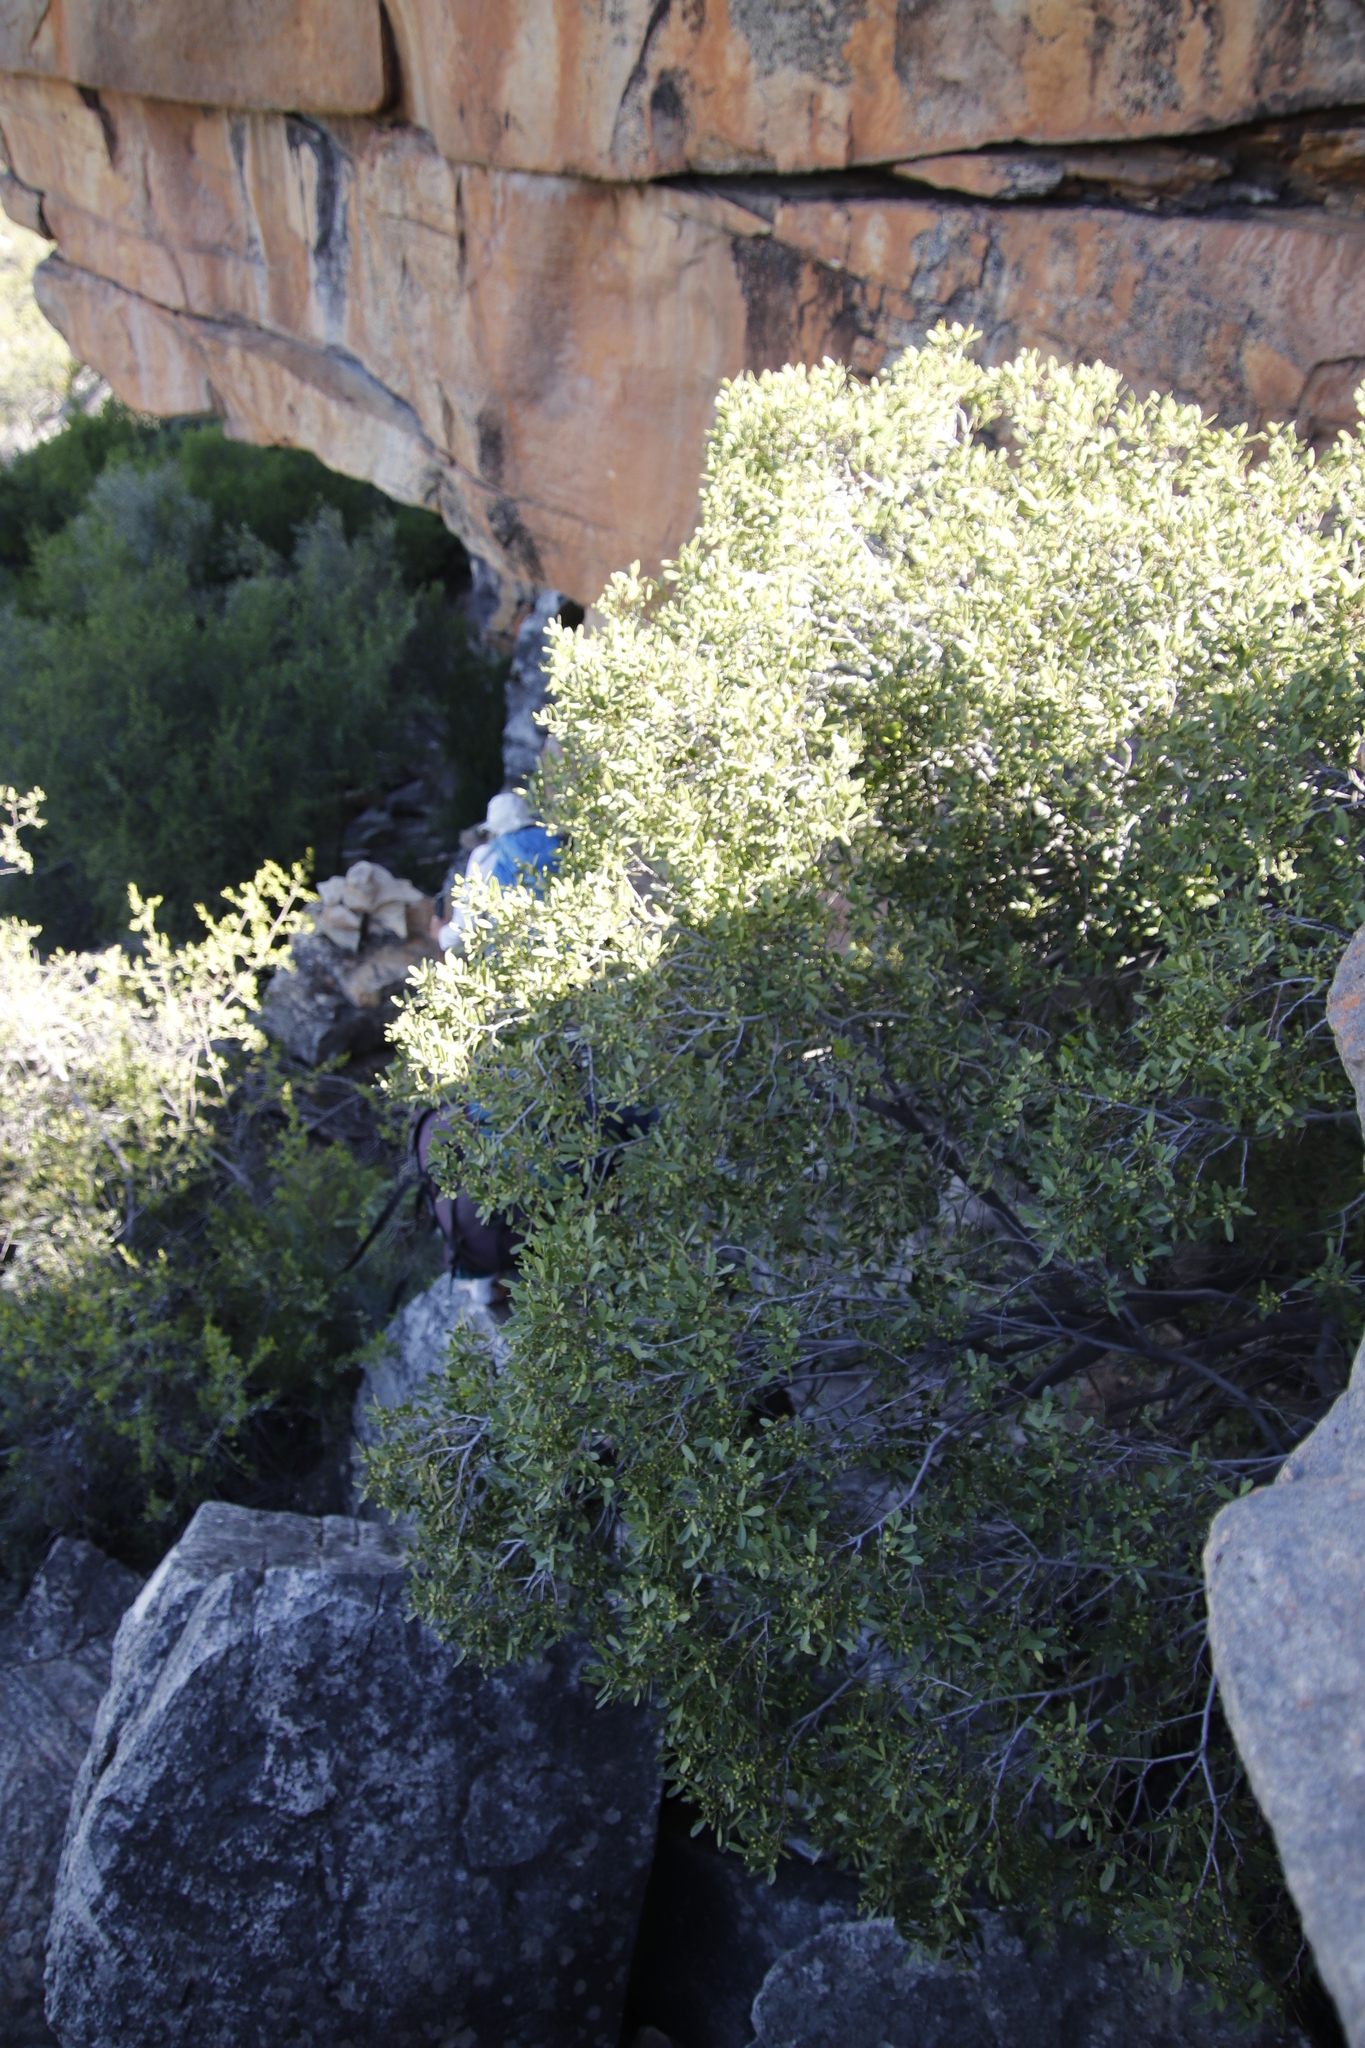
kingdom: Plantae
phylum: Tracheophyta
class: Magnoliopsida
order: Celastrales
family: Celastraceae
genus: Gymnosporia
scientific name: Gymnosporia laurina
